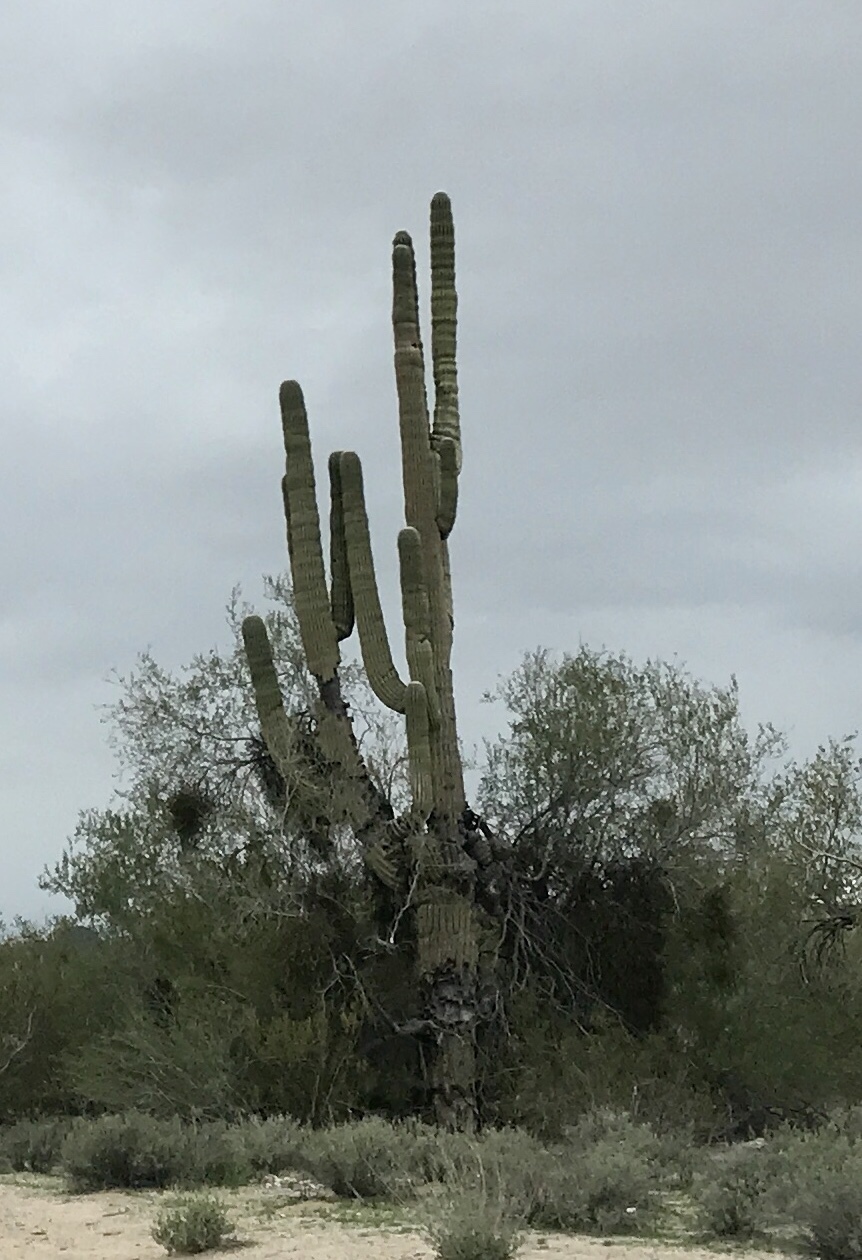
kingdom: Plantae
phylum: Tracheophyta
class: Magnoliopsida
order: Caryophyllales
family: Cactaceae
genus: Carnegiea
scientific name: Carnegiea gigantea
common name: Saguaro
